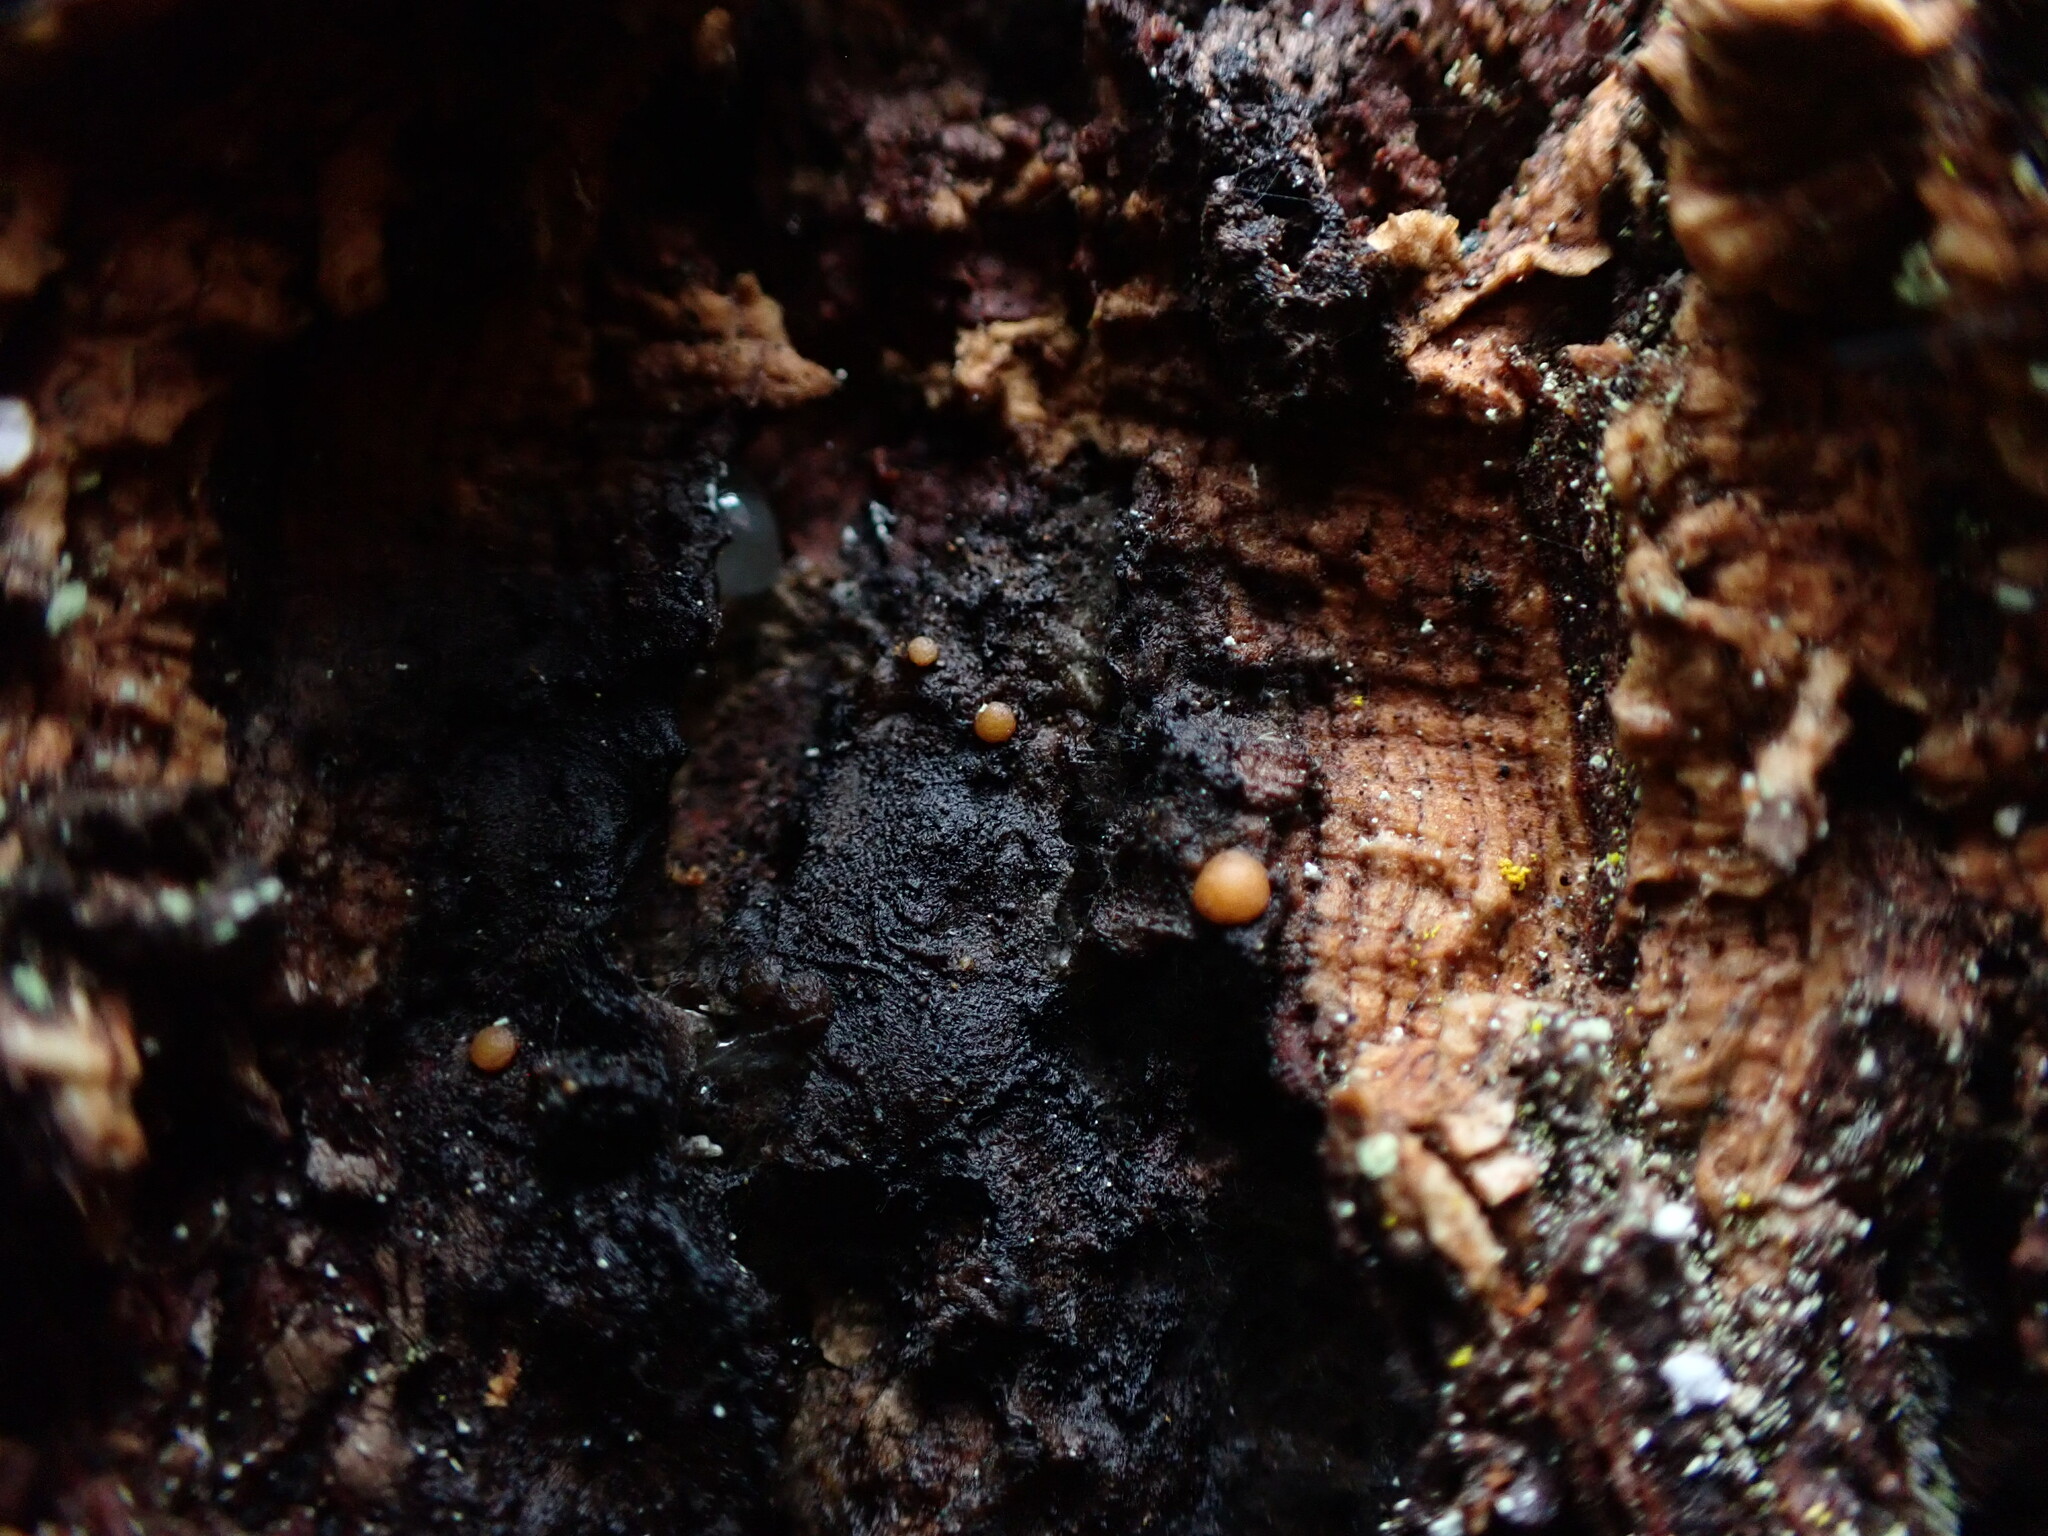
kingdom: Fungi
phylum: Ascomycota
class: Sareomycetes
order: Sareales
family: Sareaceae
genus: Sarea
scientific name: Sarea resinae
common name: Sarea lichen
